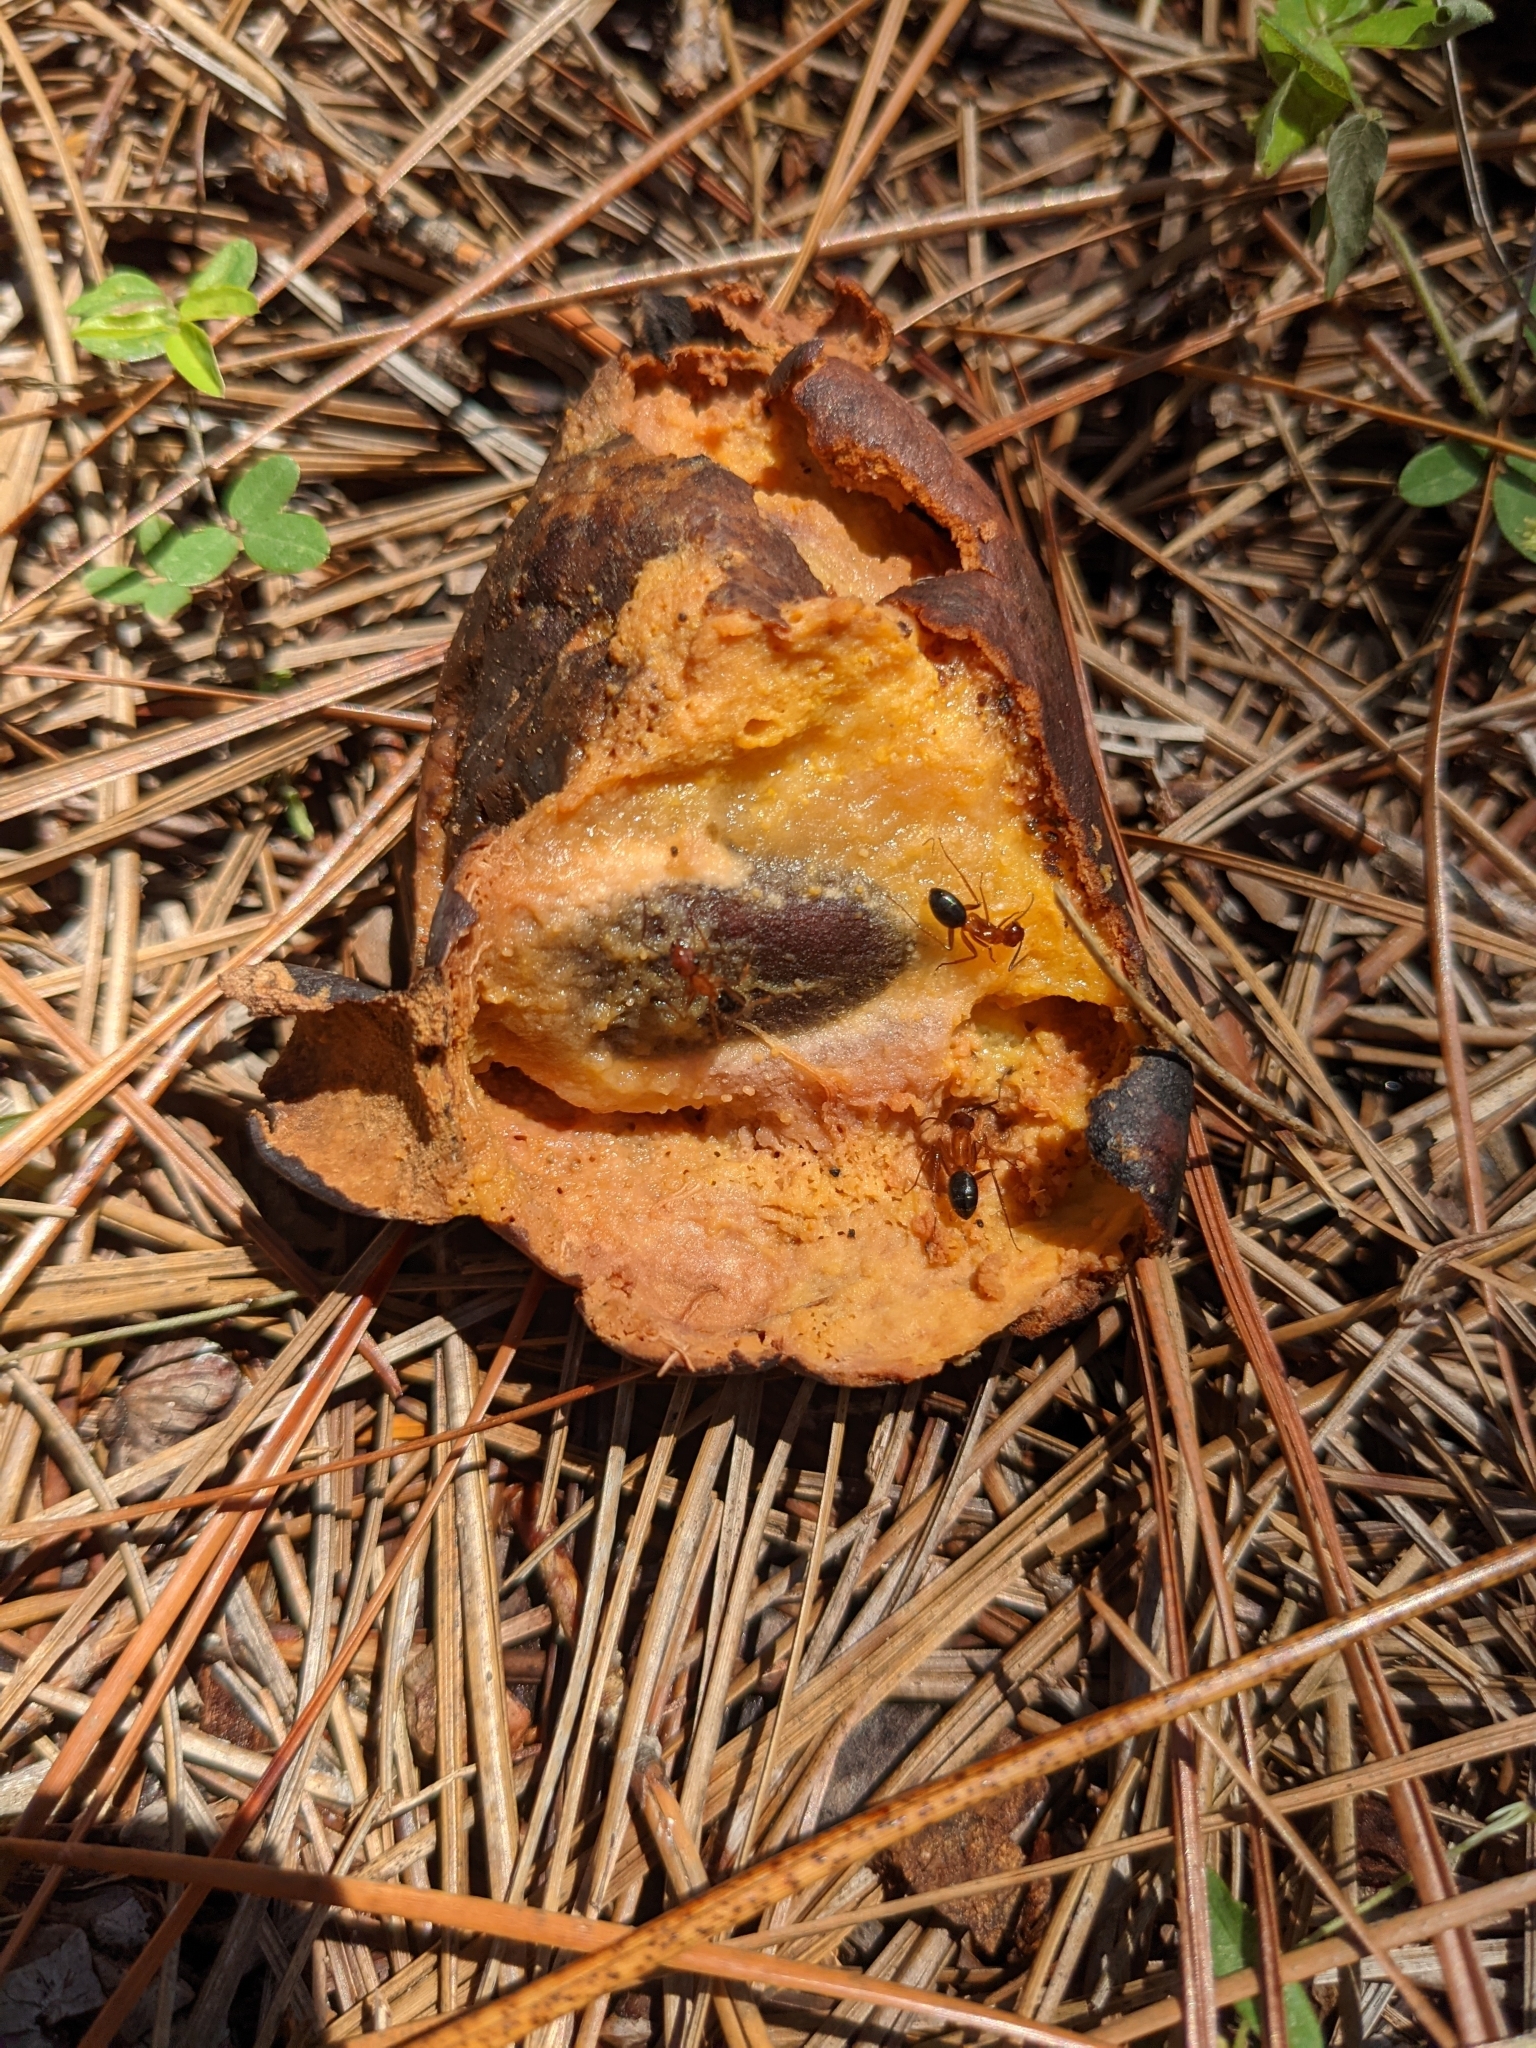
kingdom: Animalia
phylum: Arthropoda
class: Insecta
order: Hymenoptera
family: Formicidae
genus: Camponotus
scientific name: Camponotus floridanus
